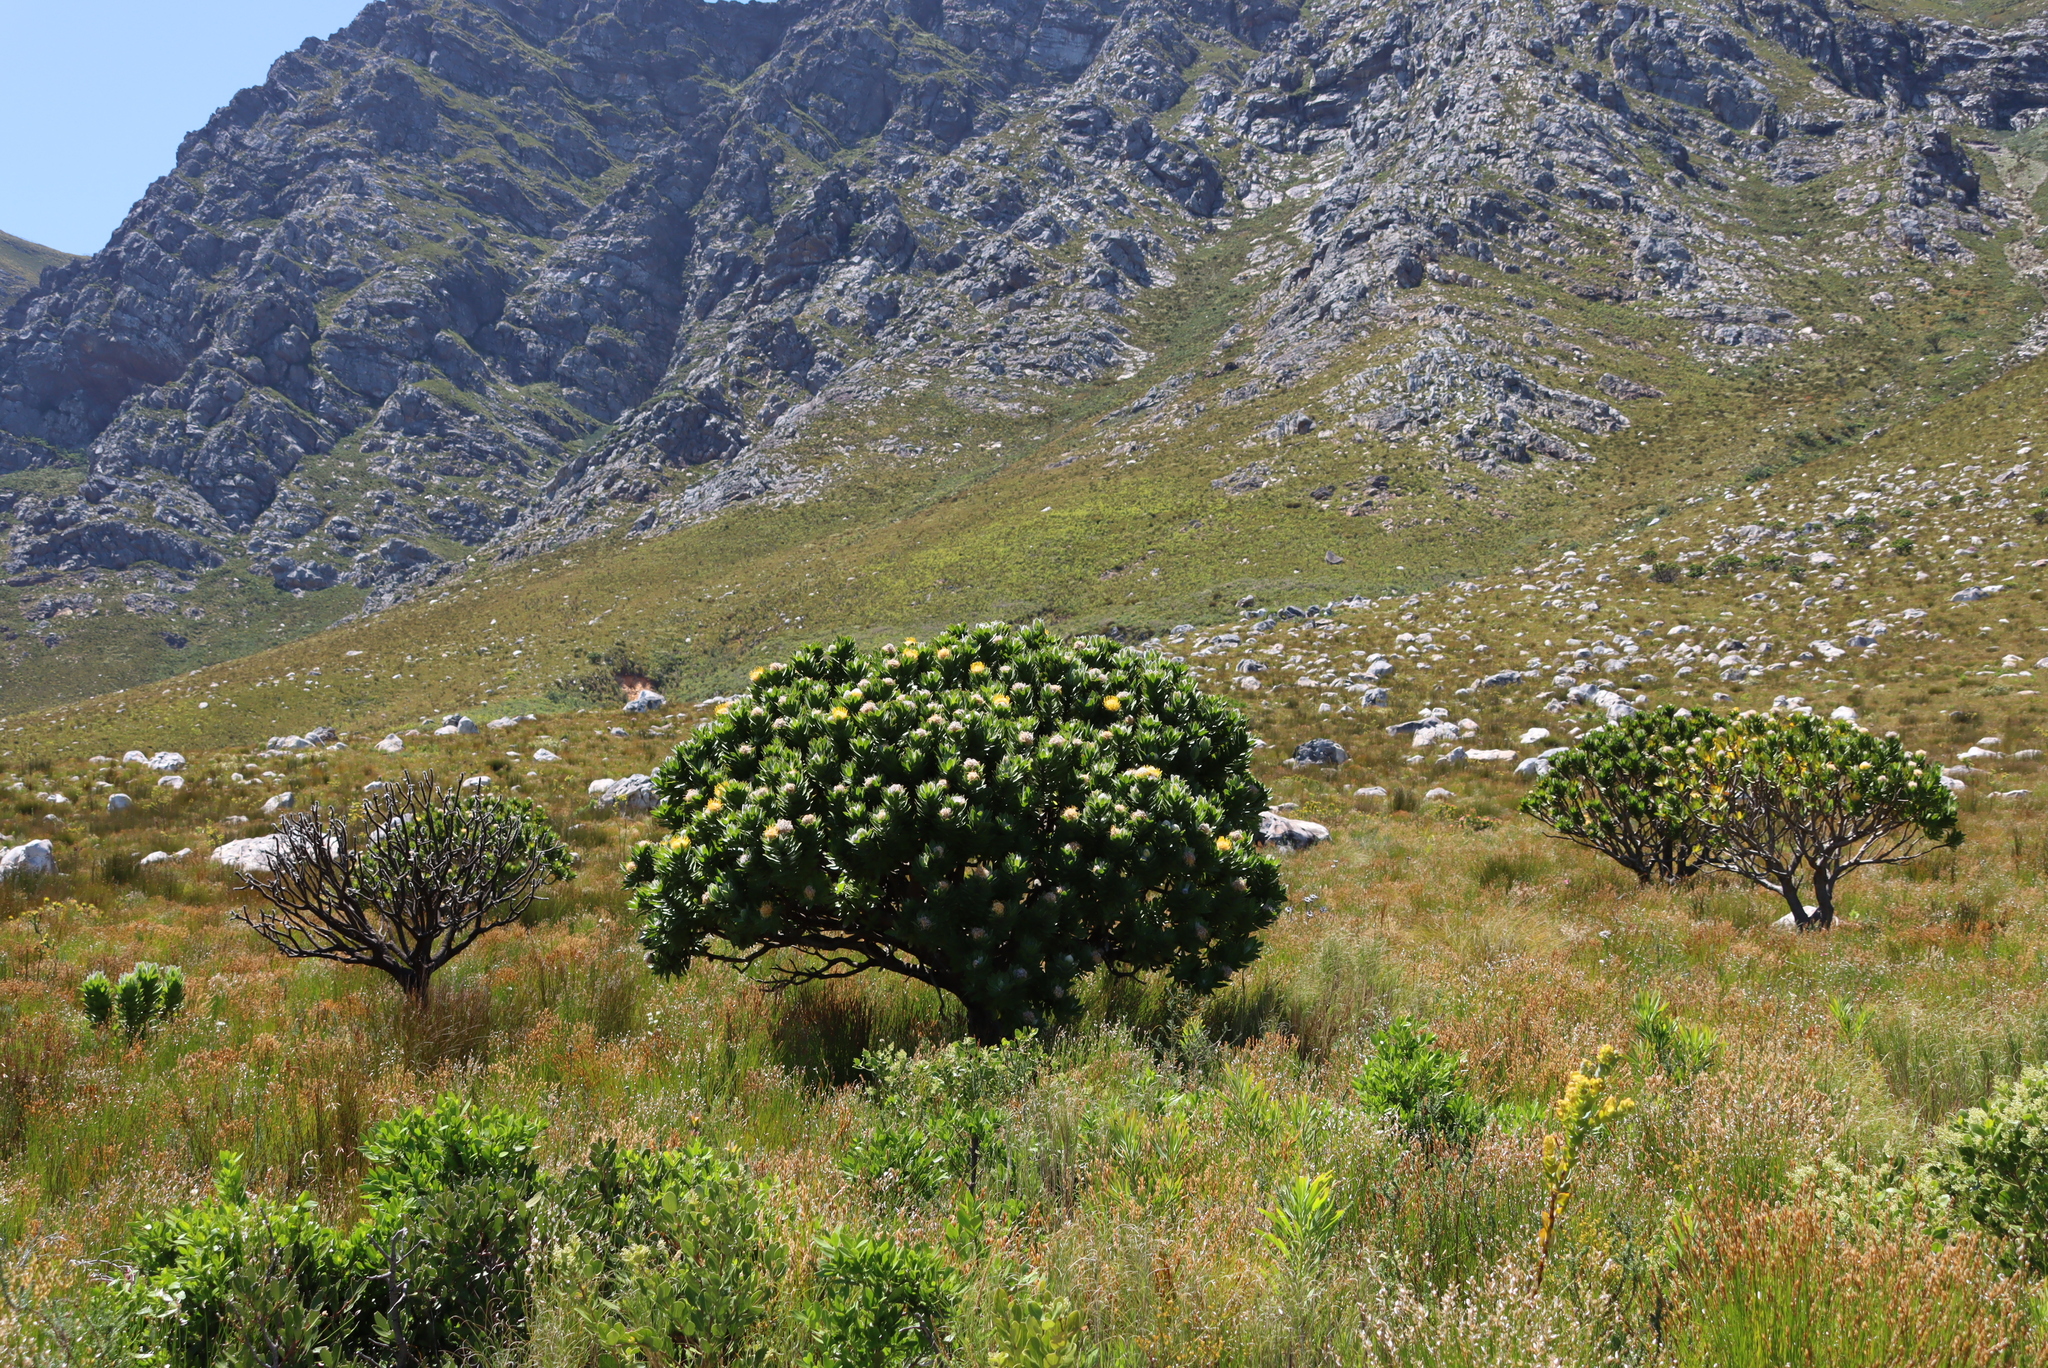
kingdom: Plantae
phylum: Tracheophyta
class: Magnoliopsida
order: Proteales
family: Proteaceae
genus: Leucospermum
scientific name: Leucospermum conocarpodendron
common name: Tree pincushion
